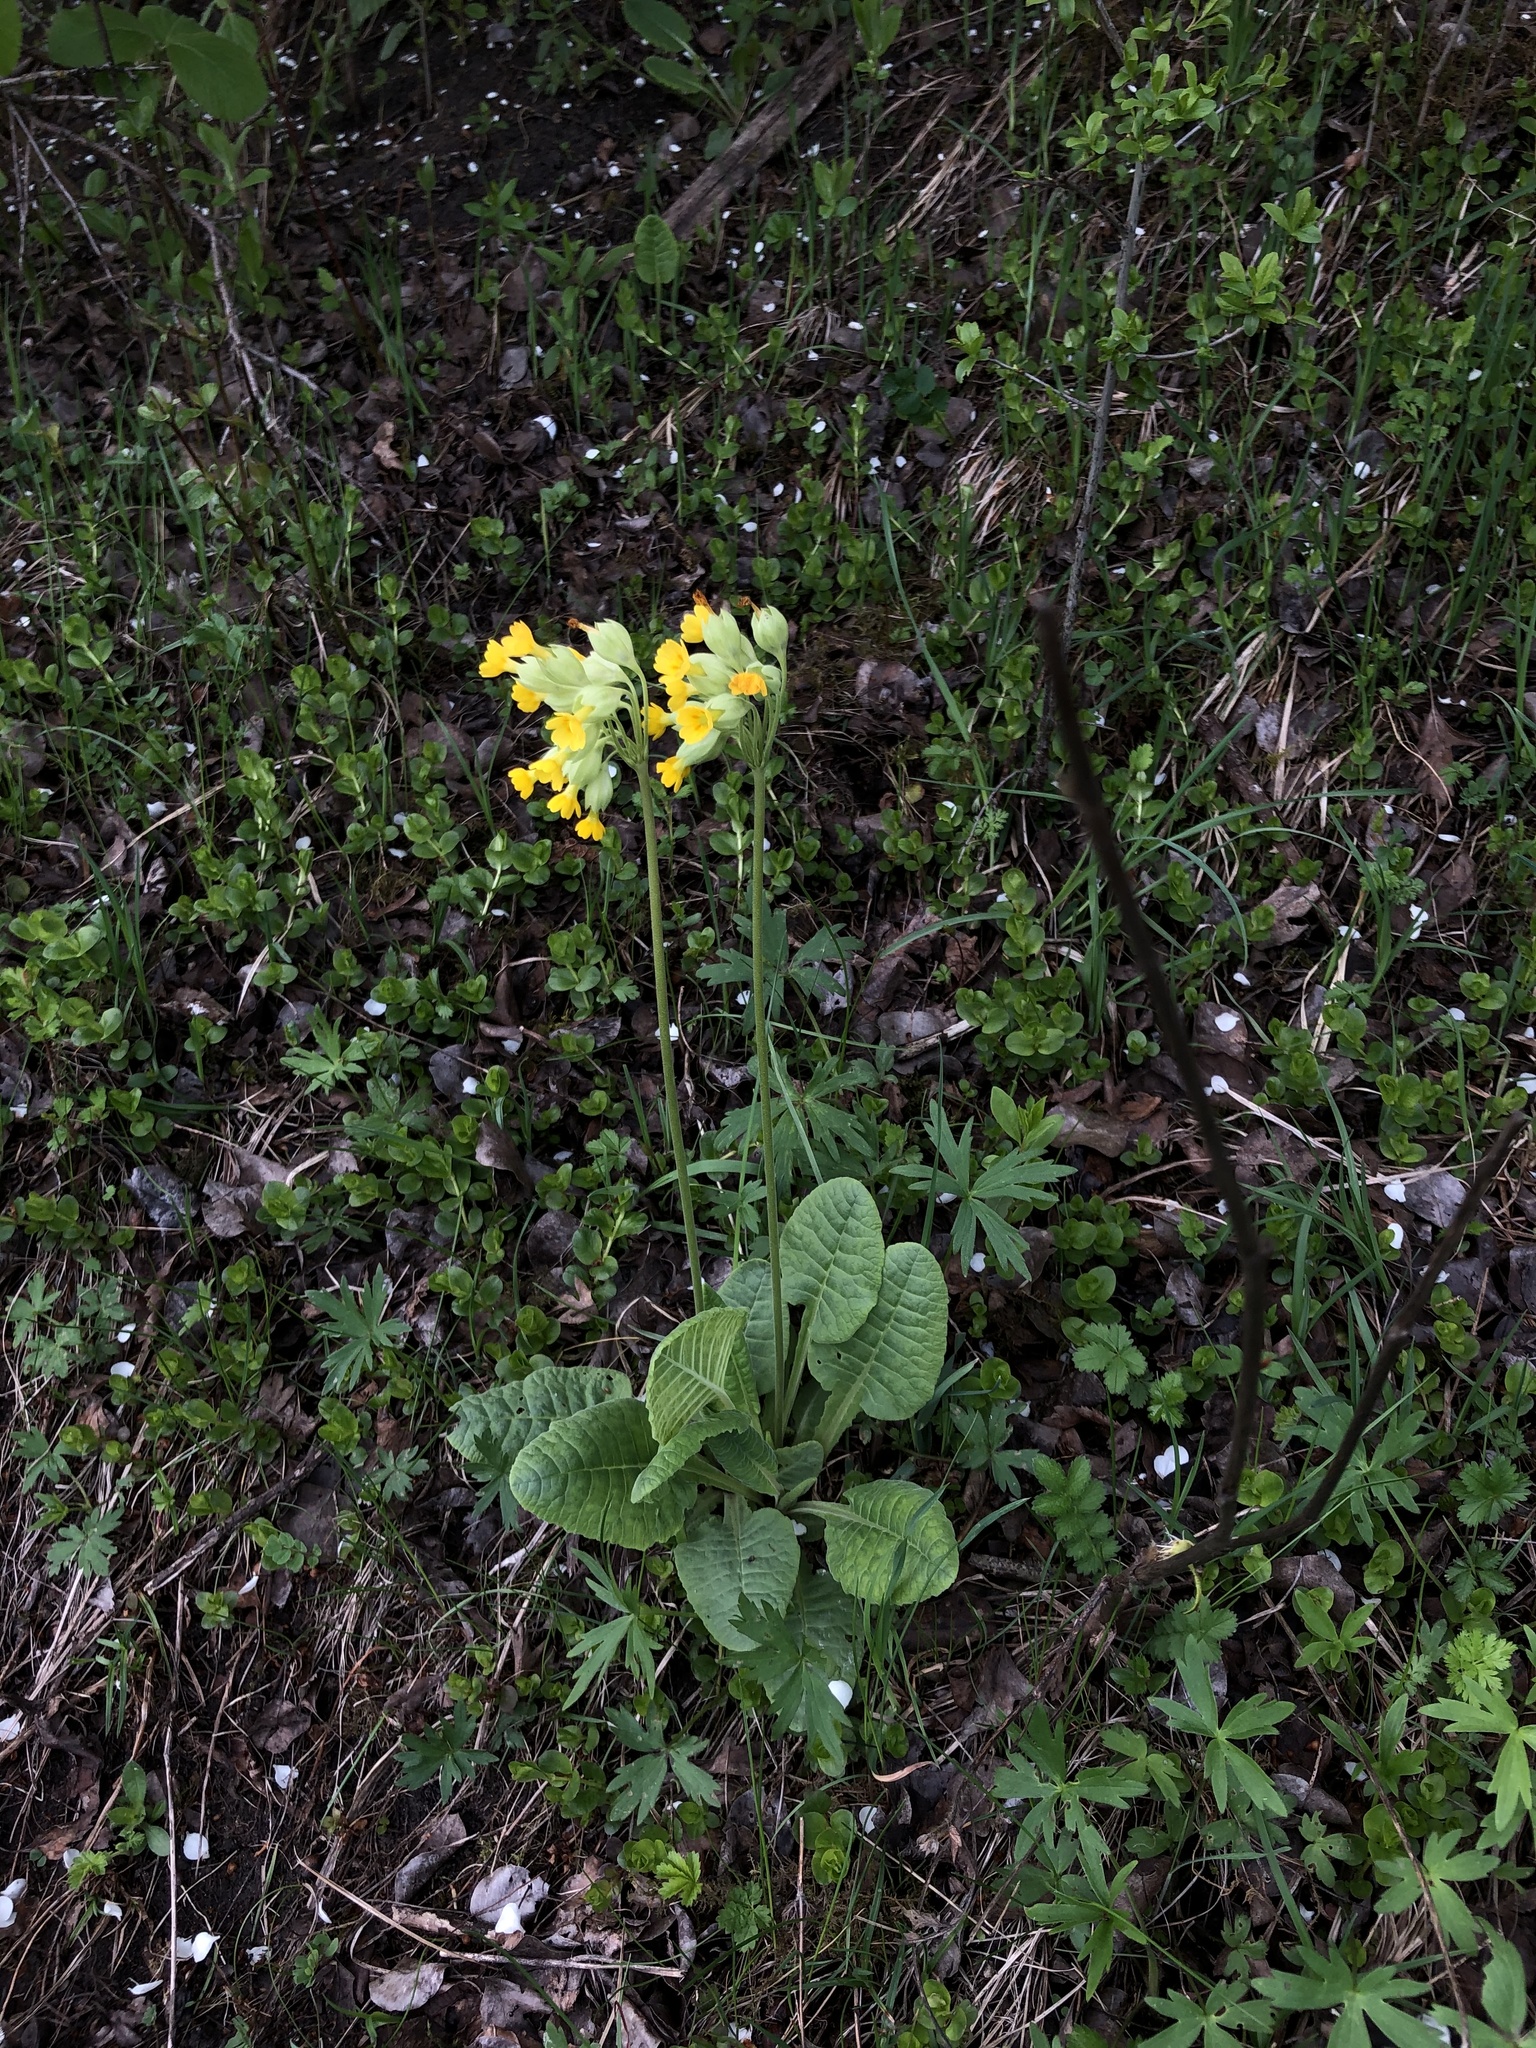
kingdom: Plantae
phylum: Tracheophyta
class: Magnoliopsida
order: Ericales
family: Primulaceae
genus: Primula
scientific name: Primula veris
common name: Cowslip
